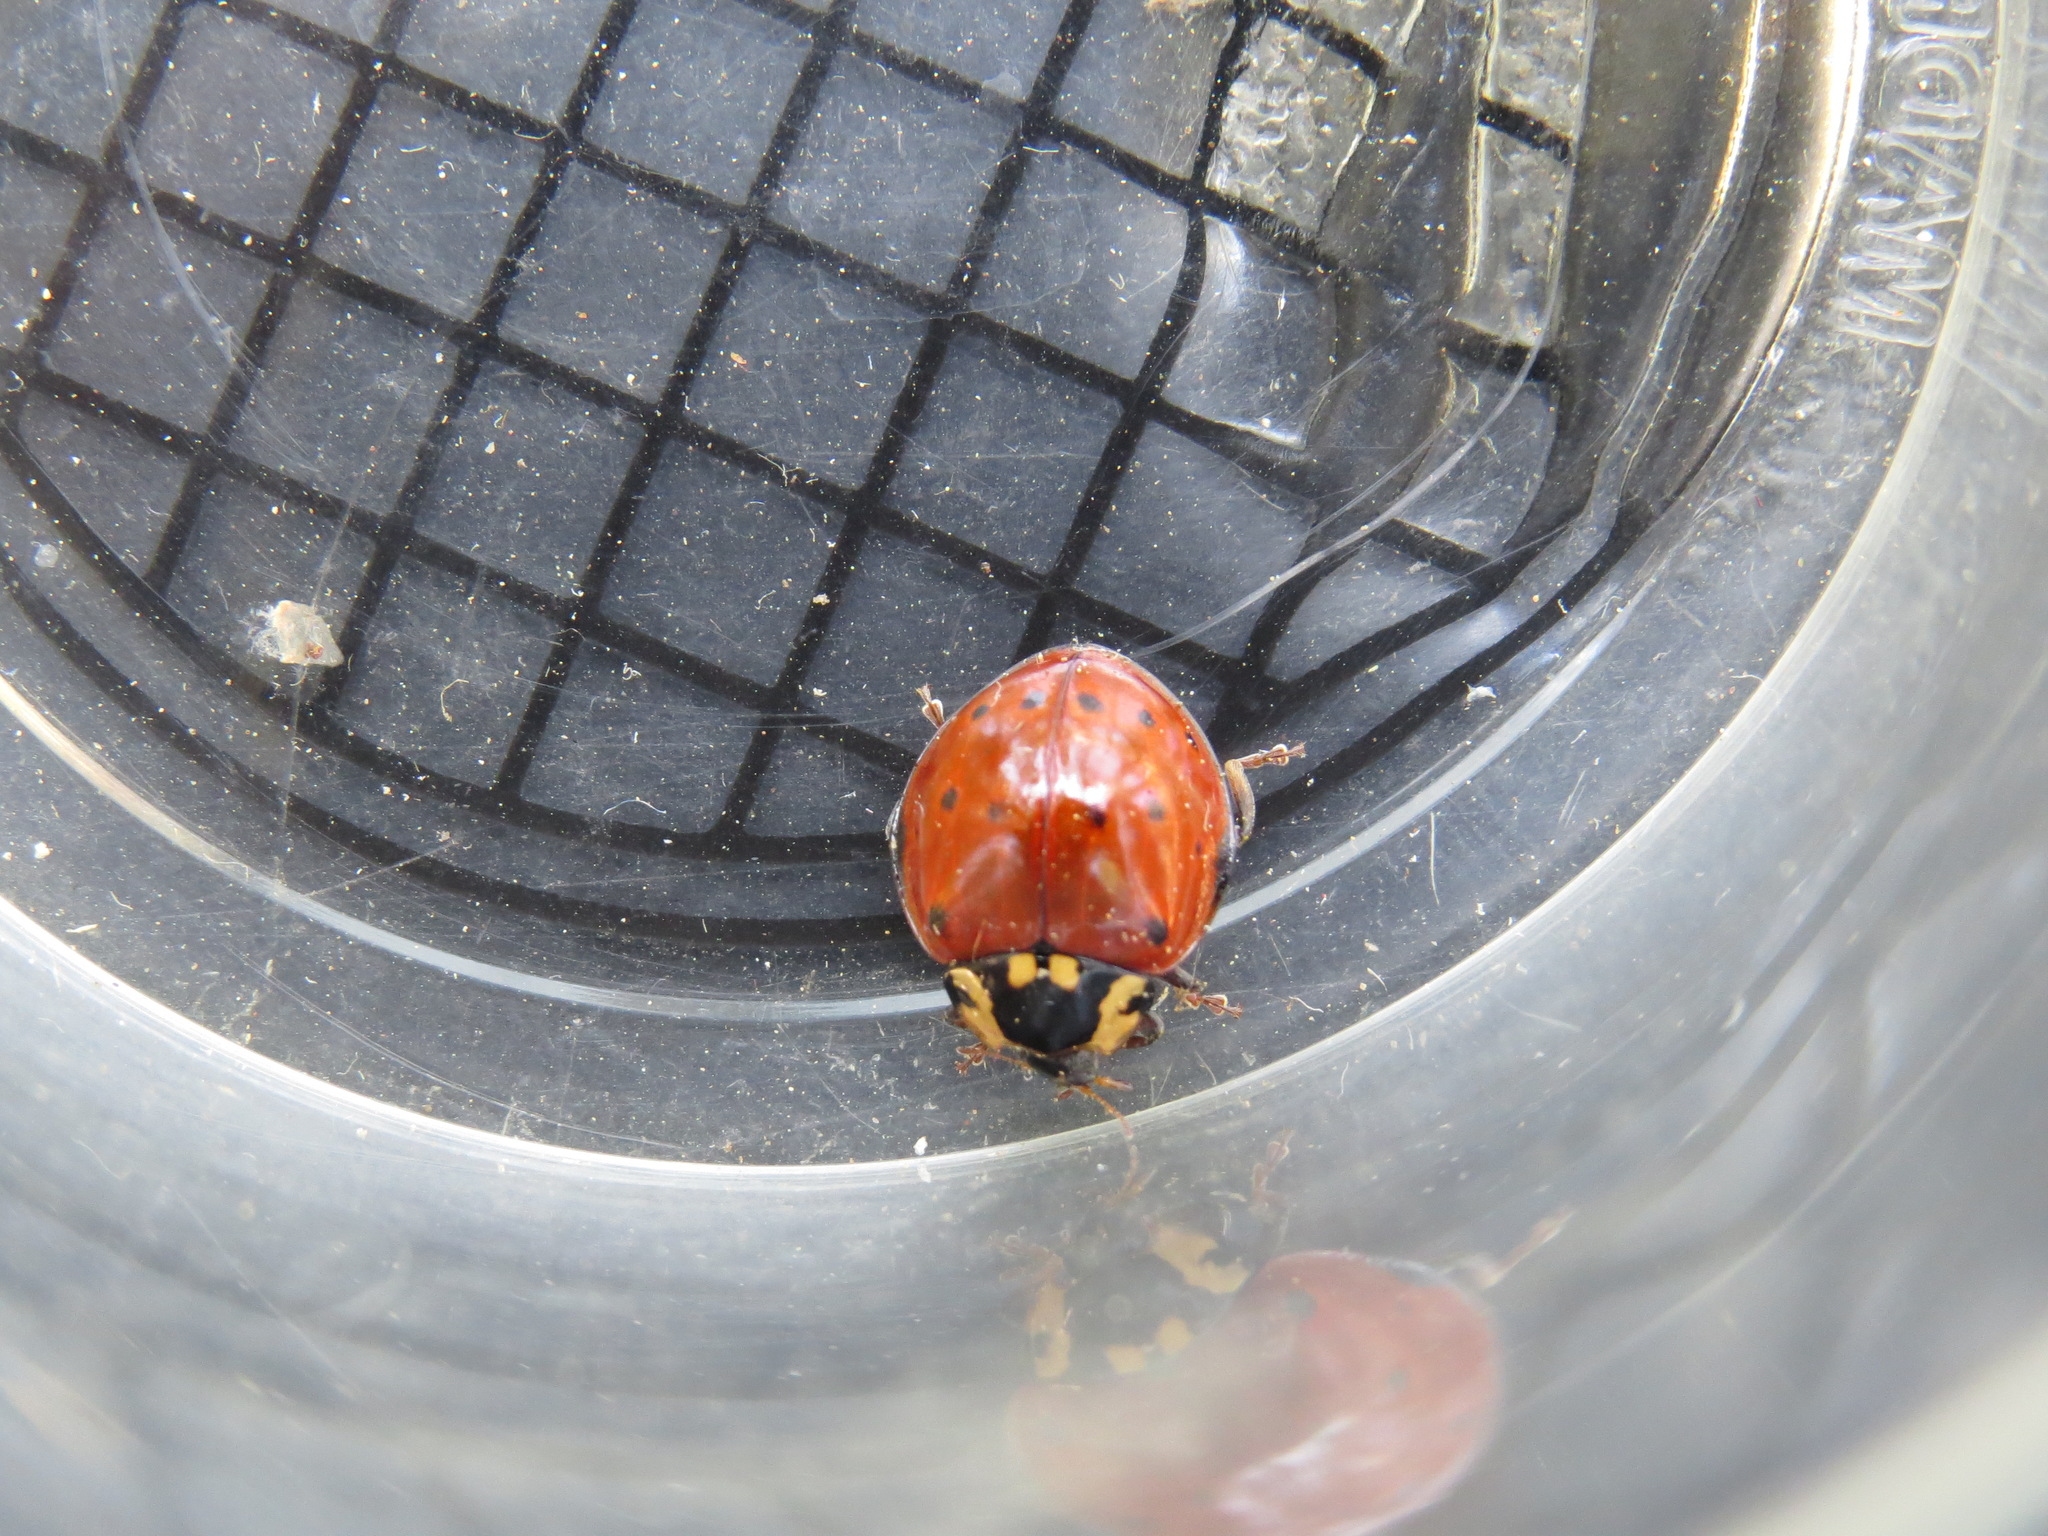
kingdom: Animalia
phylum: Arthropoda
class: Insecta
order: Coleoptera
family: Coccinellidae
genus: Anatis
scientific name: Anatis rathvoni
